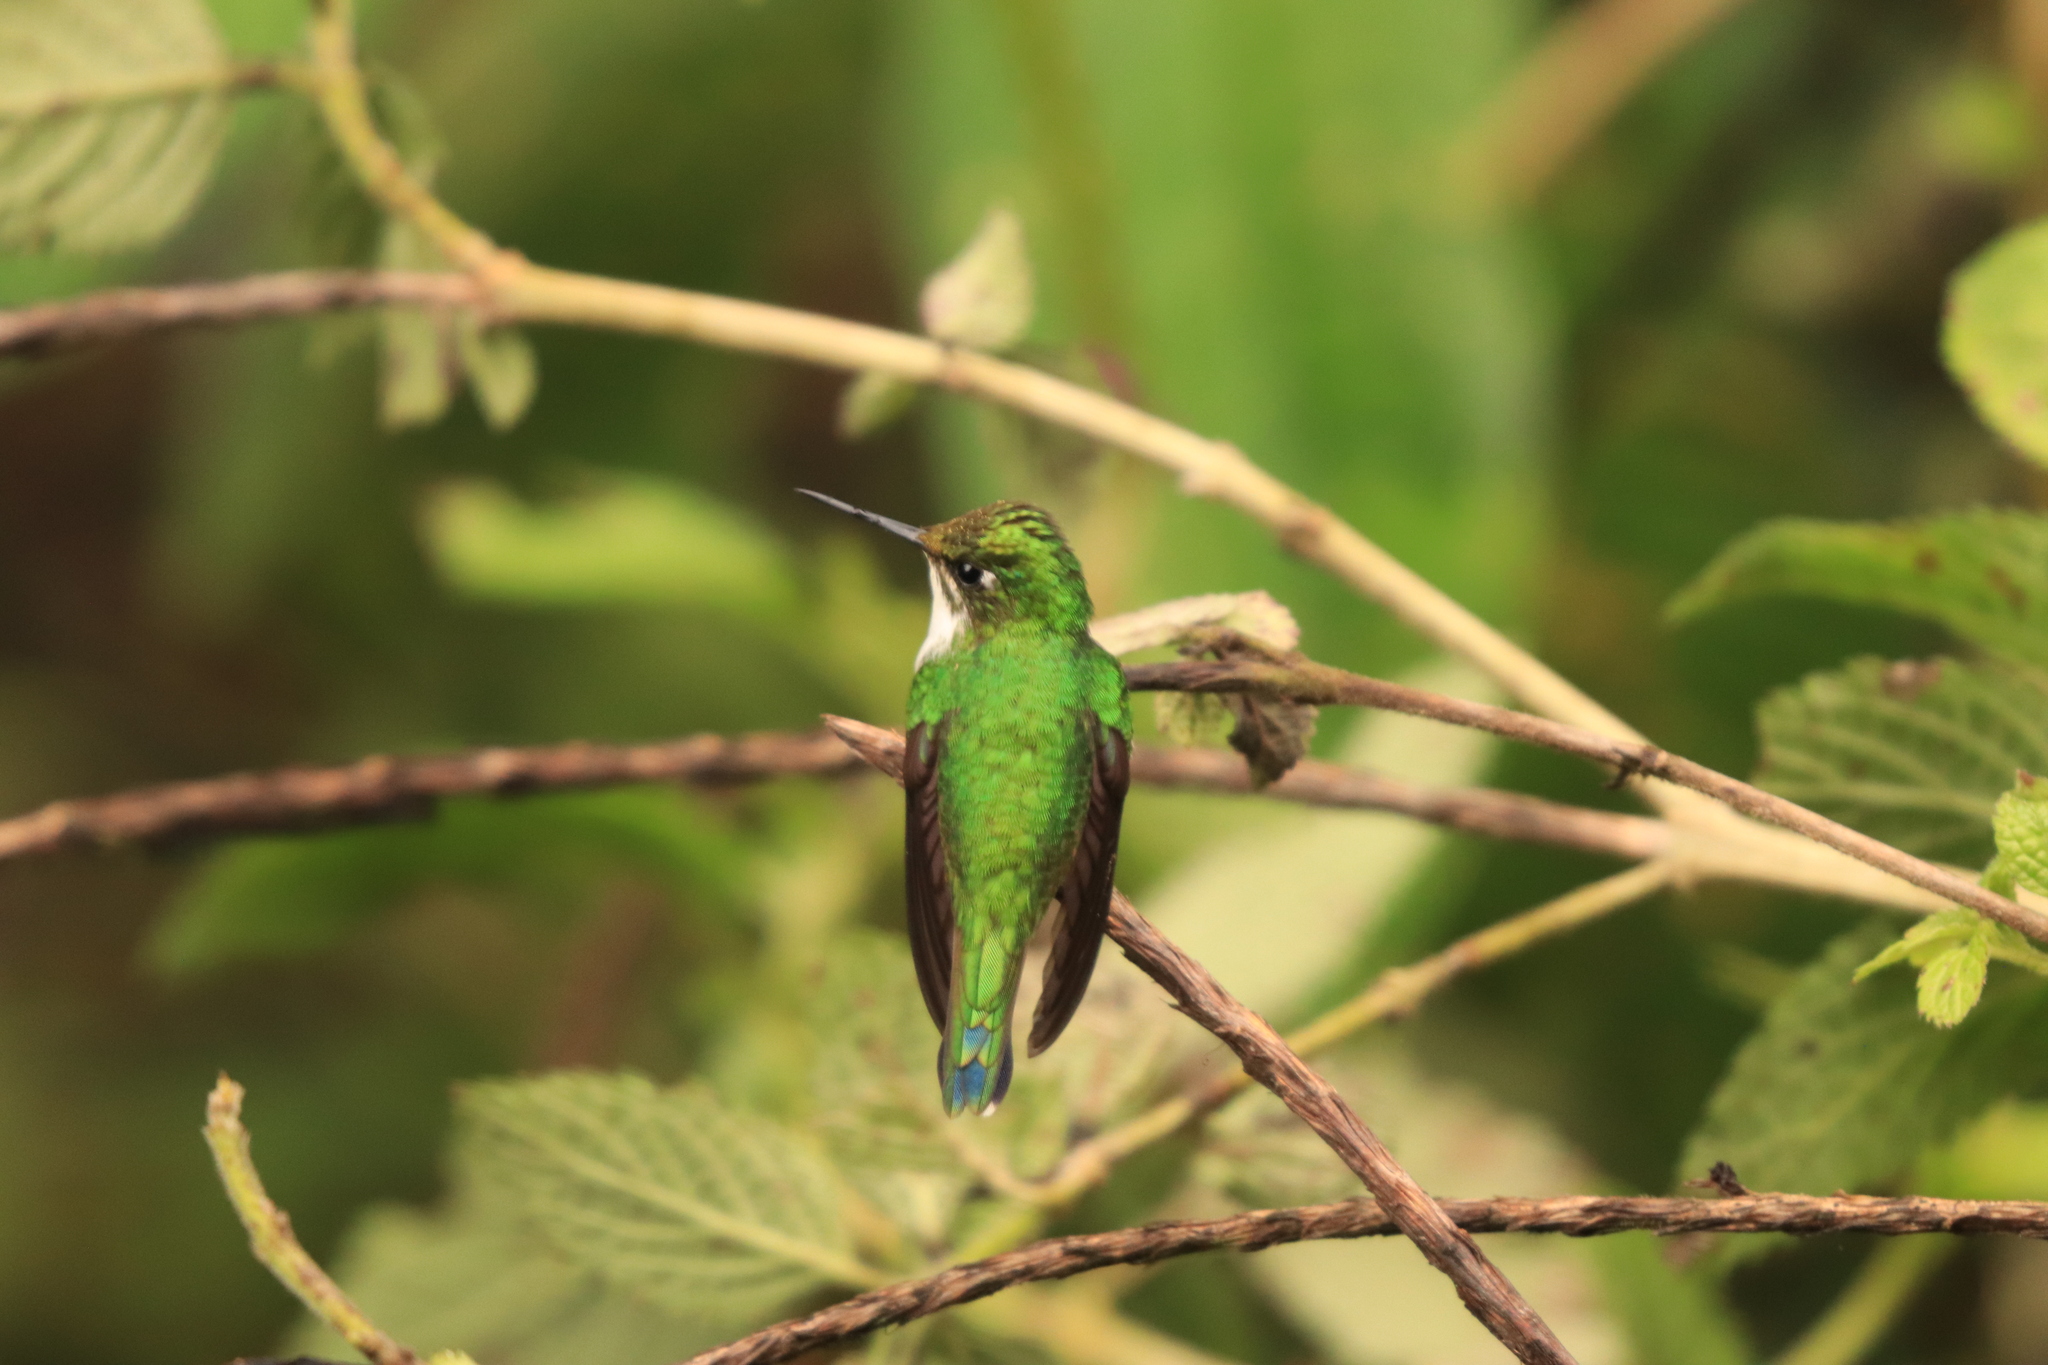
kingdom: Animalia
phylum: Chordata
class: Aves
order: Apodiformes
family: Trochilidae
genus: Ocreatus
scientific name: Ocreatus underwoodii
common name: Booted racket-tail
